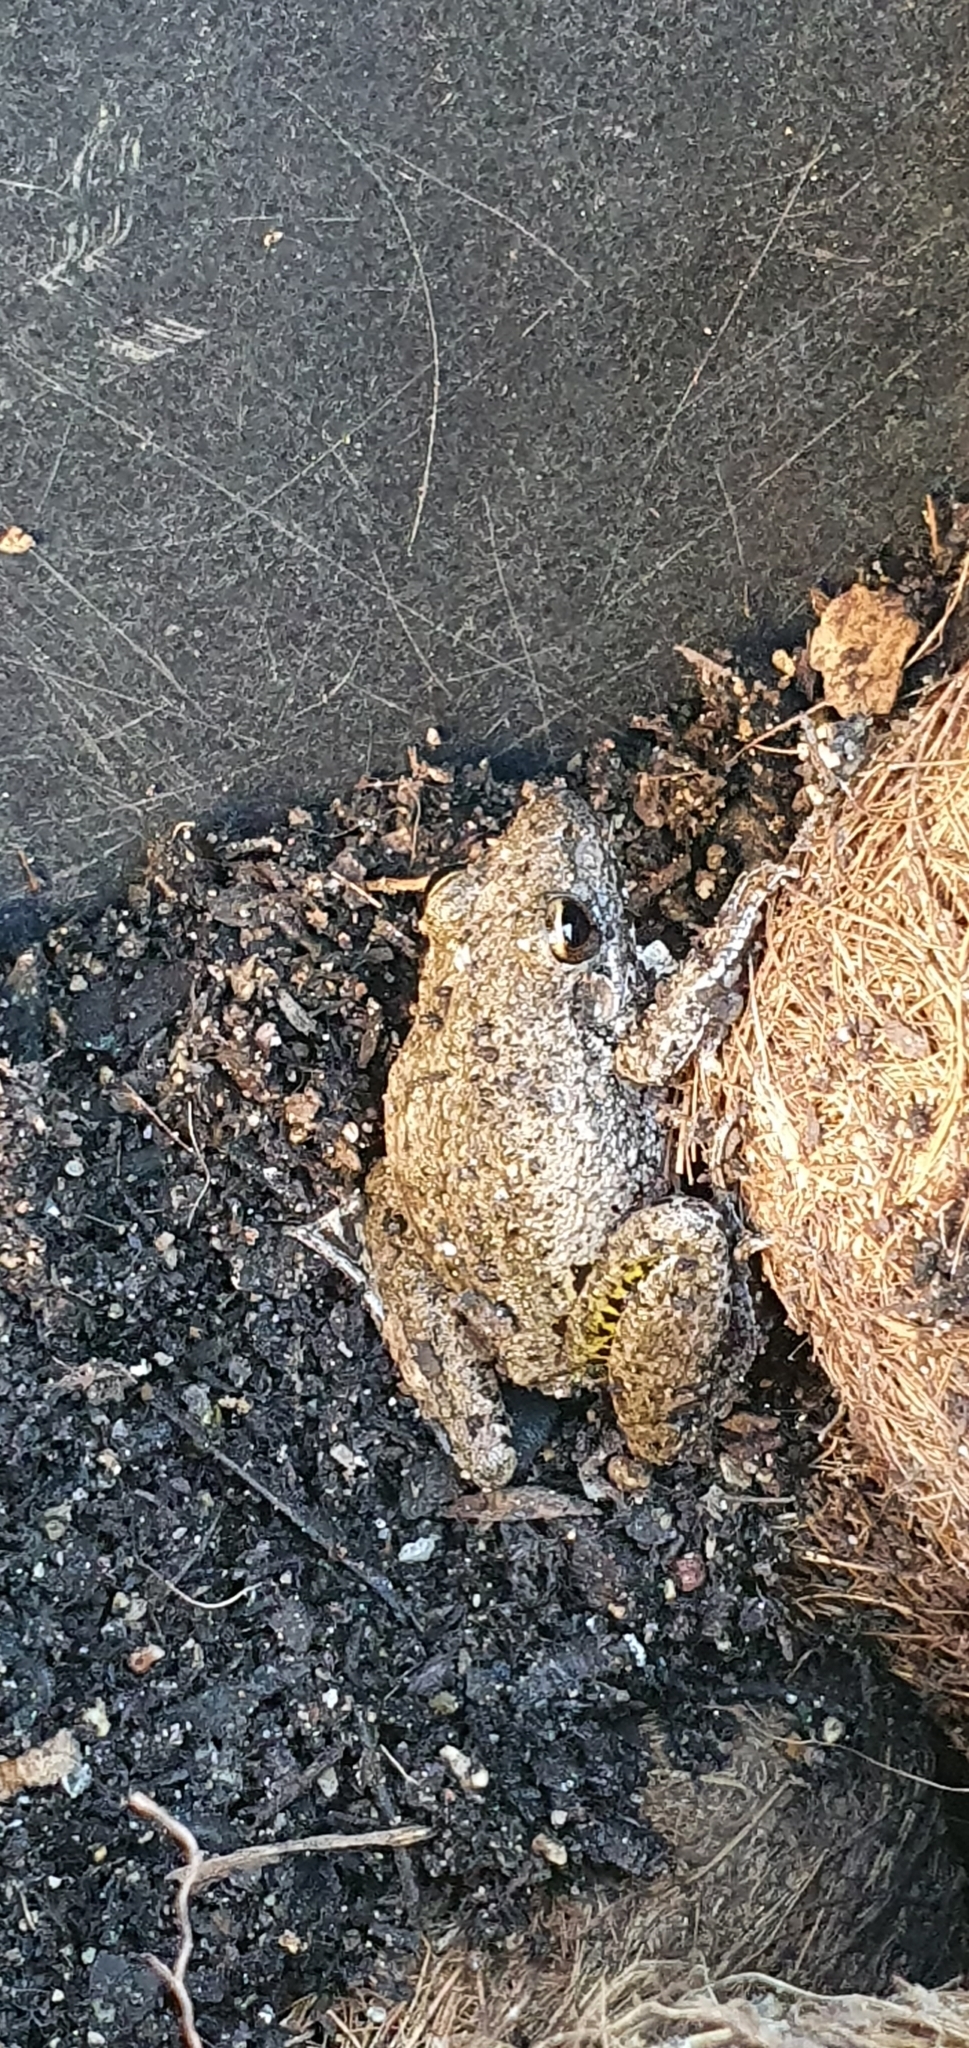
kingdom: Animalia
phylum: Chordata
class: Amphibia
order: Anura
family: Pelodryadidae
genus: Litoria
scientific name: Litoria inermis
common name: Bumpy rocket frog
